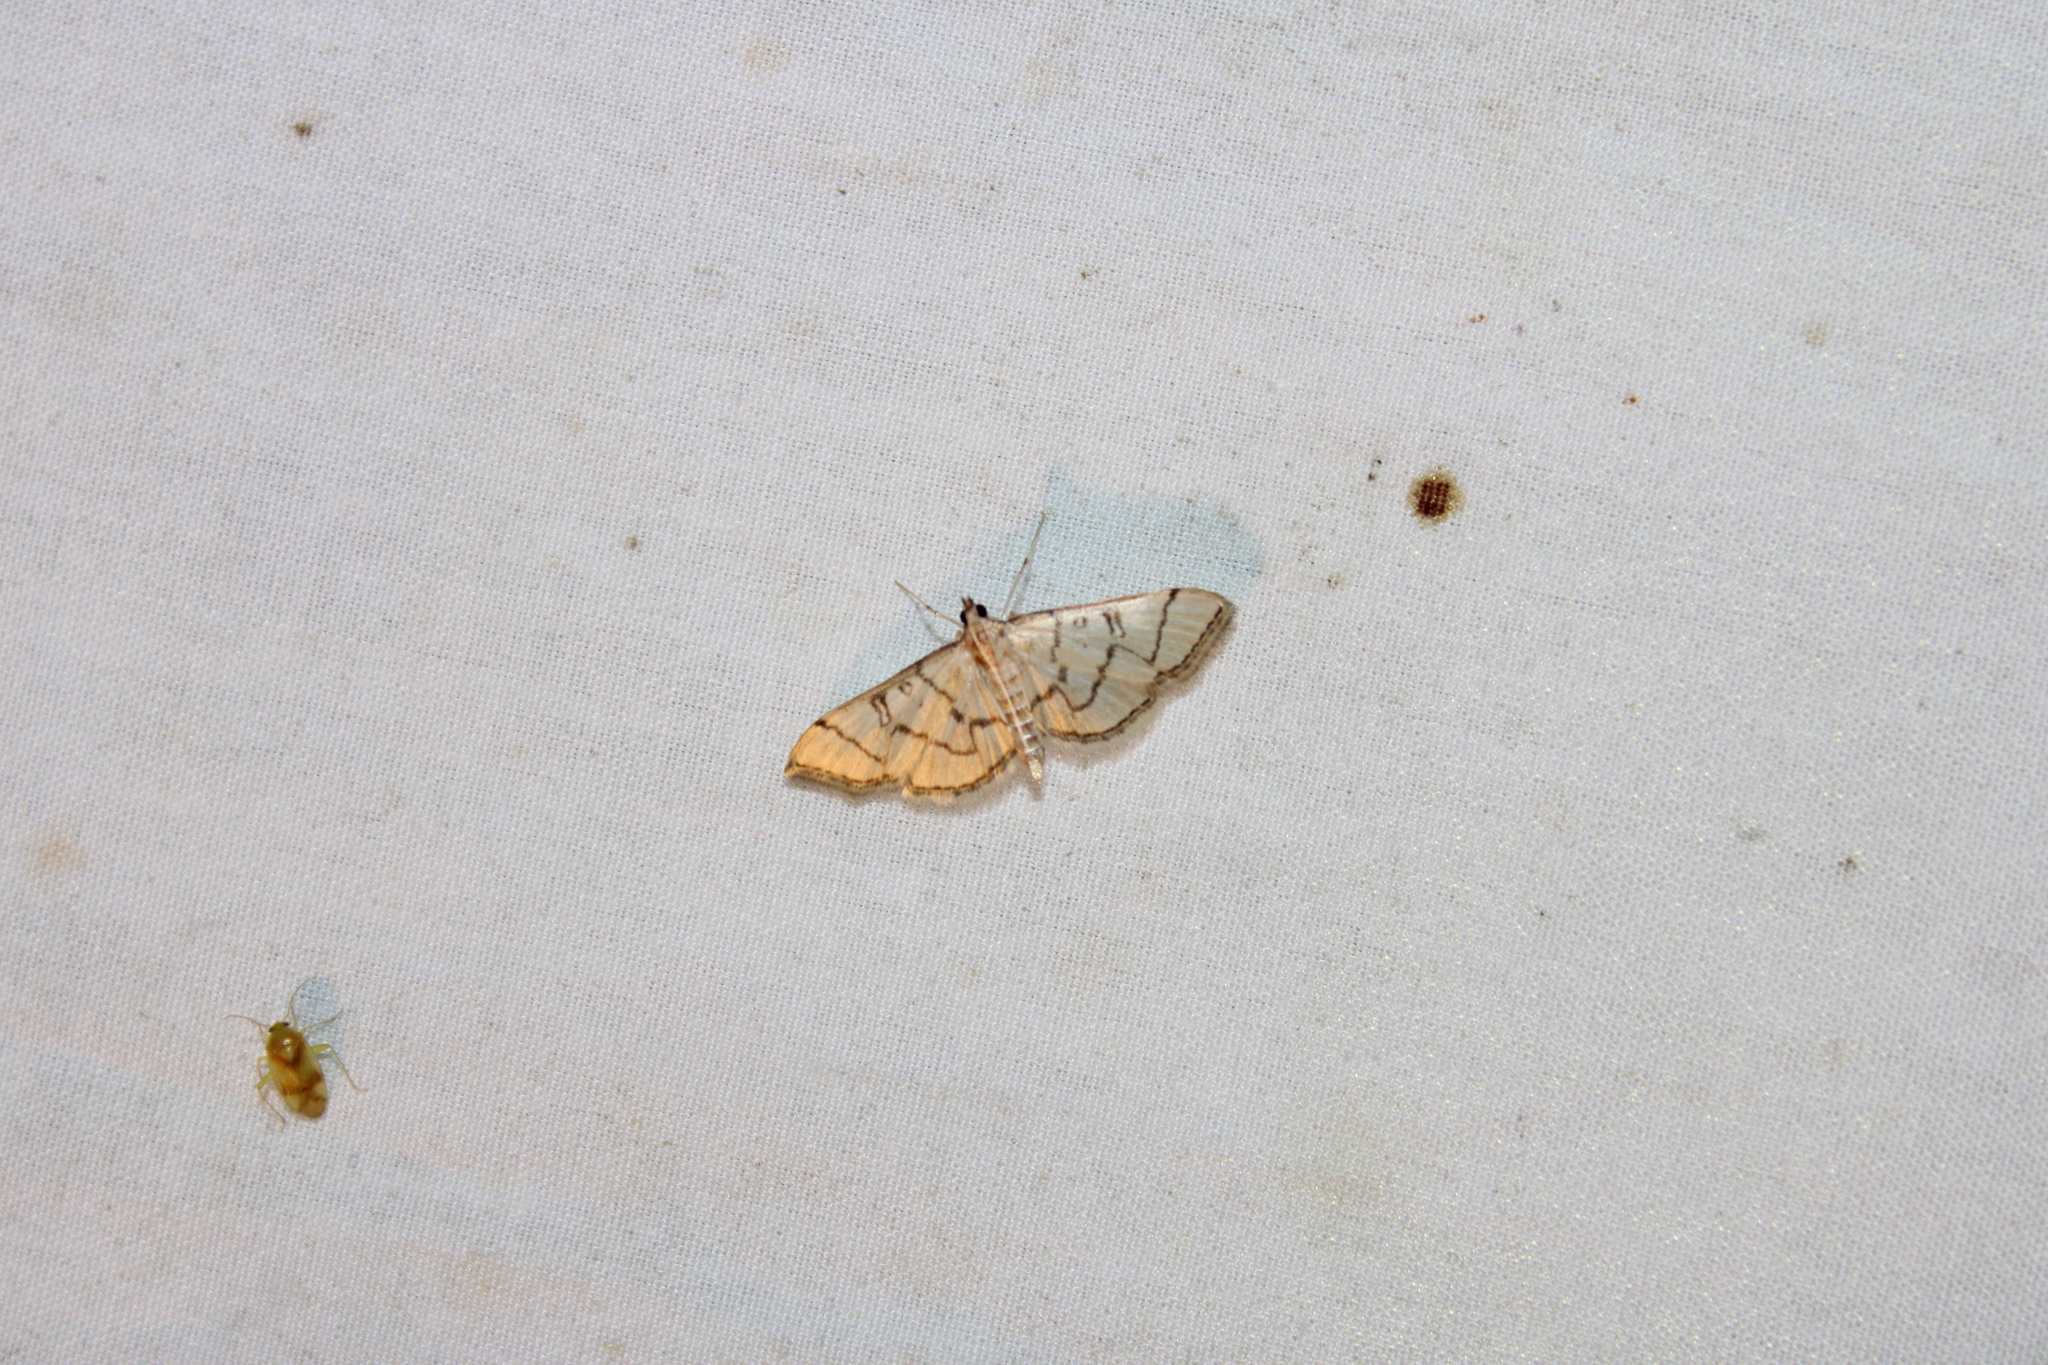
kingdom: Animalia
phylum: Arthropoda
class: Insecta
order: Lepidoptera
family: Crambidae
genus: Lamprosema
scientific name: Lamprosema Blepharomastix ranalis
